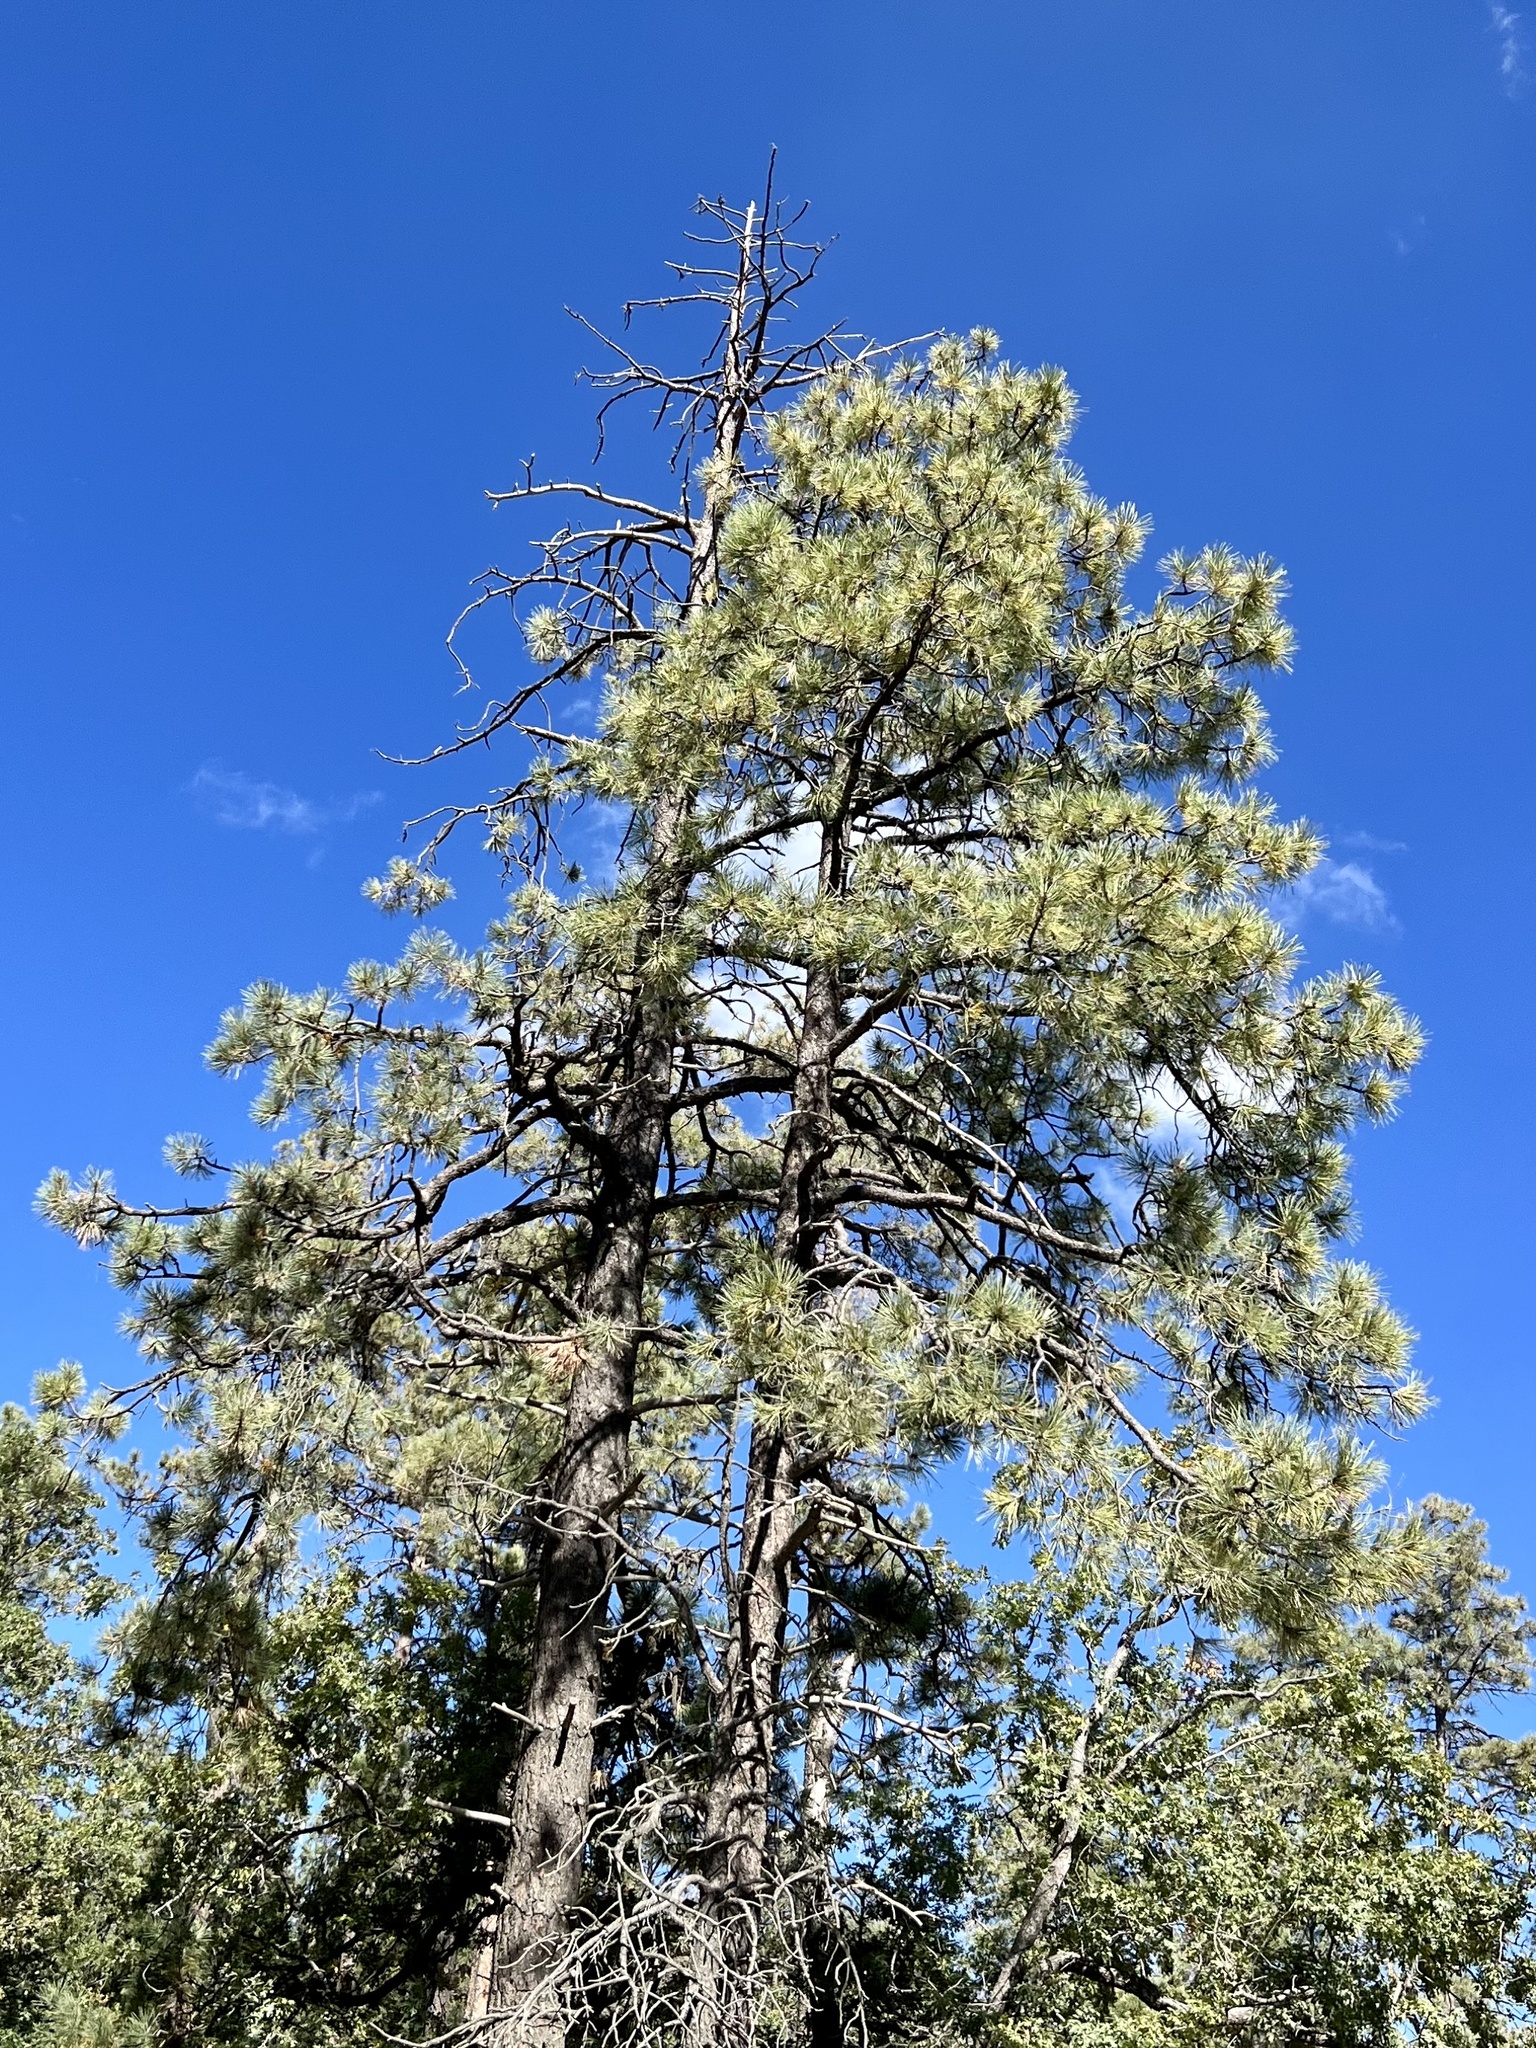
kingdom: Plantae
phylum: Tracheophyta
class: Pinopsida
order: Pinales
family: Pinaceae
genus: Pinus
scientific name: Pinus ponderosa
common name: Western yellow-pine
